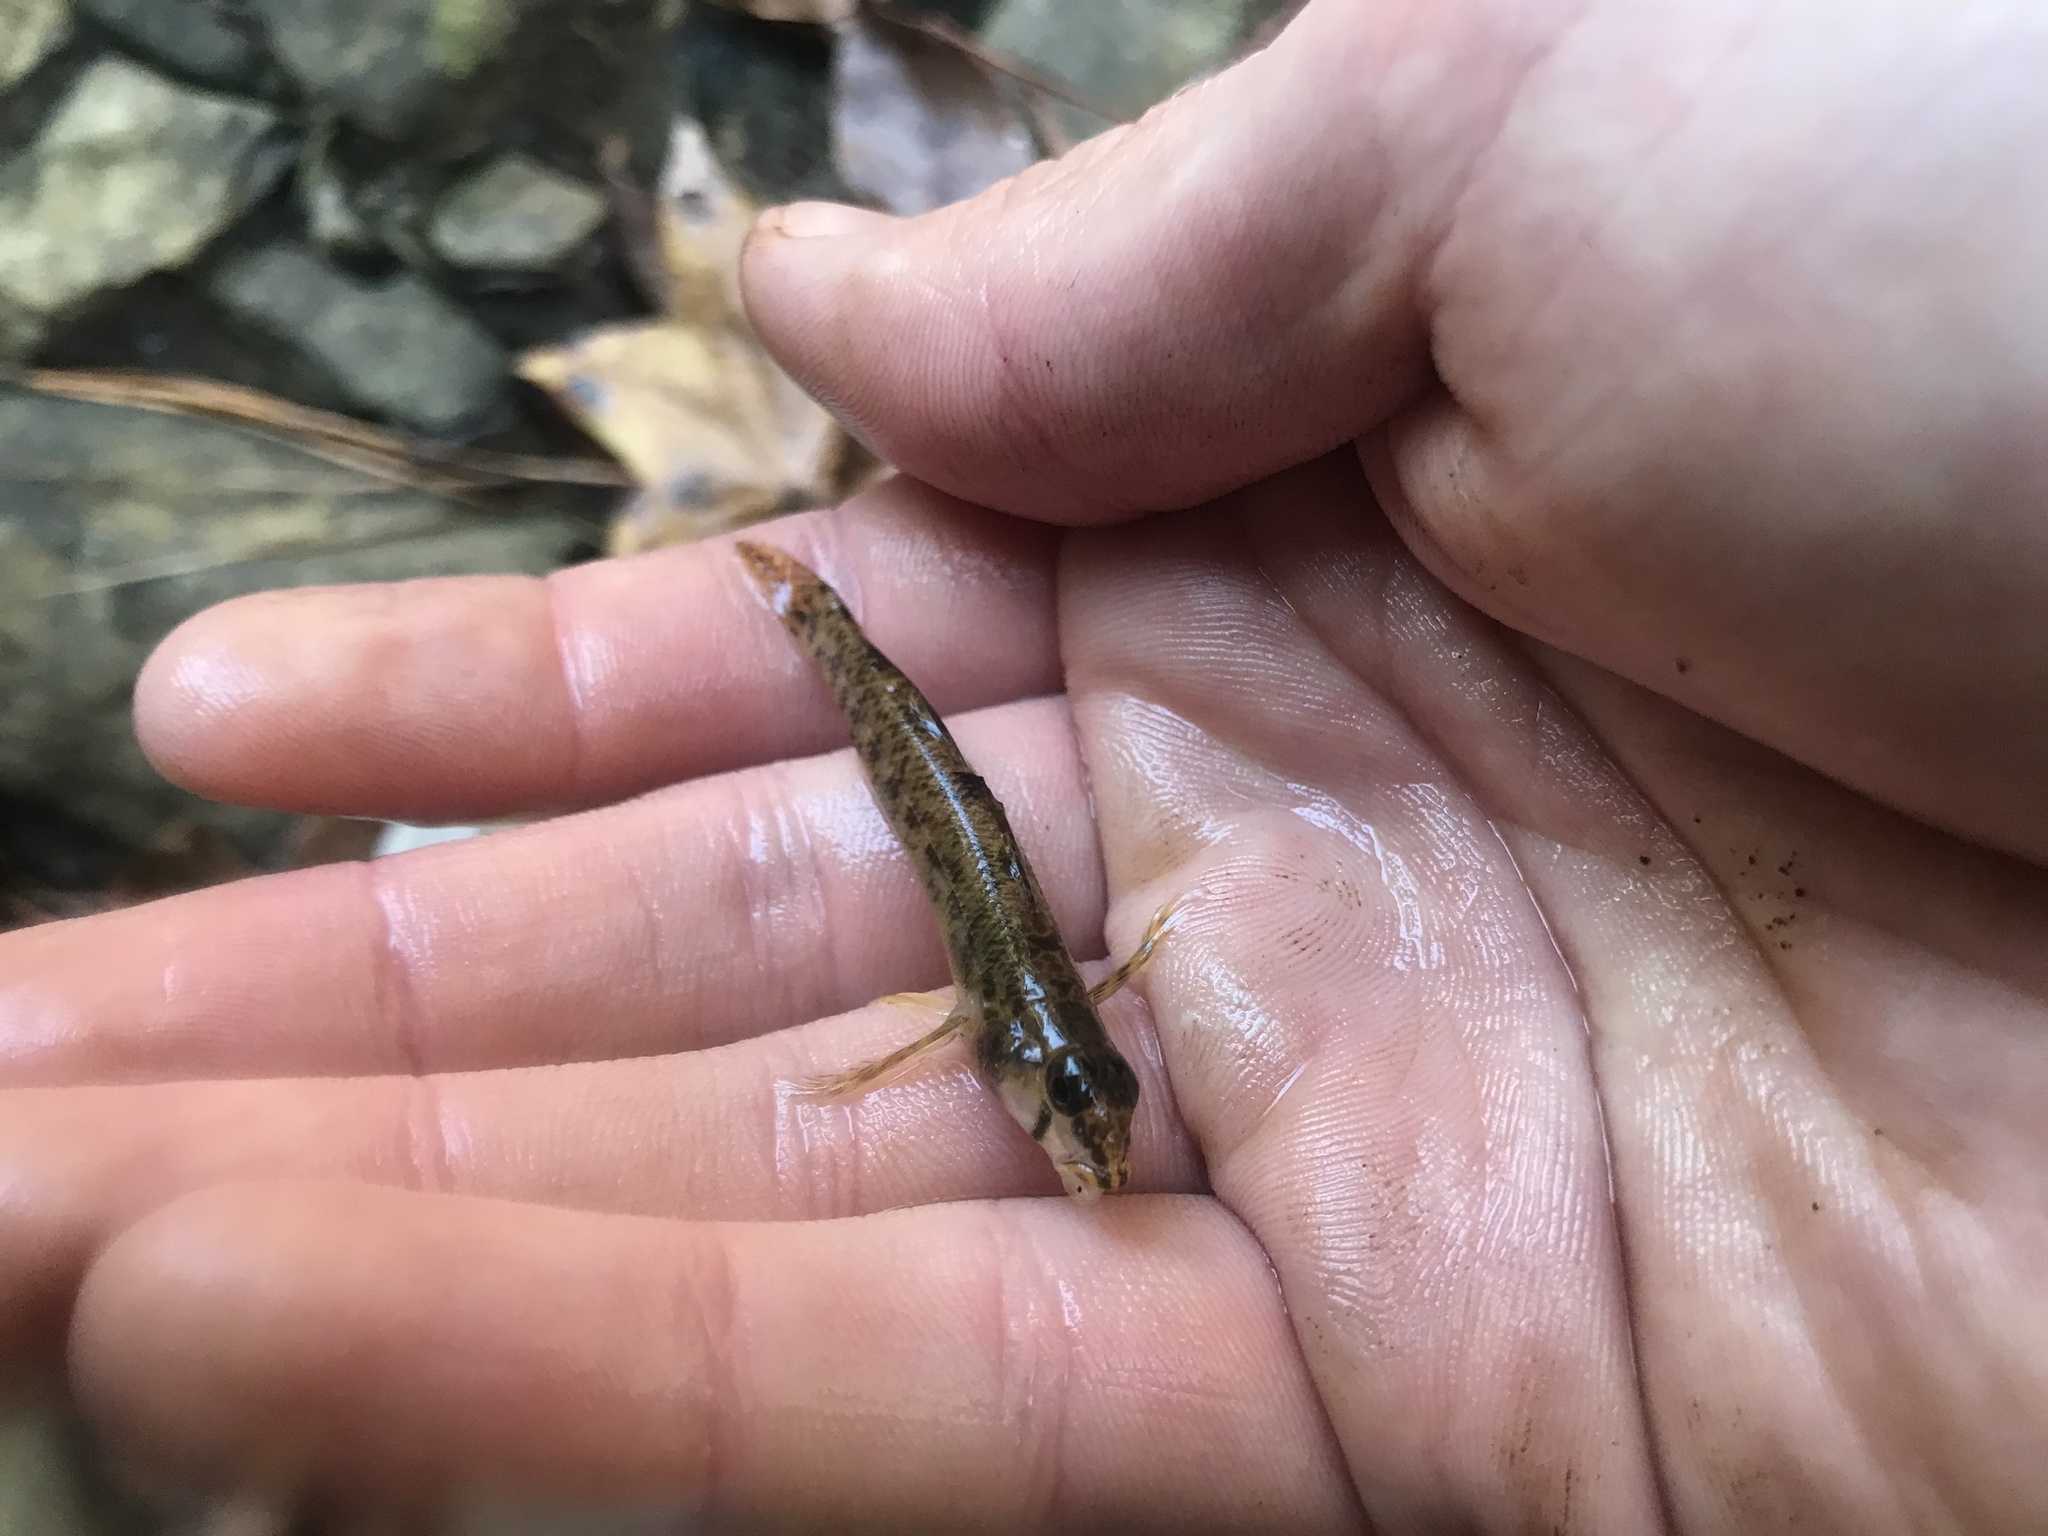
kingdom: Animalia
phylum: Chordata
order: Perciformes
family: Percidae
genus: Etheostoma
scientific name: Etheostoma olmstedi
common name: Tessellated darter
